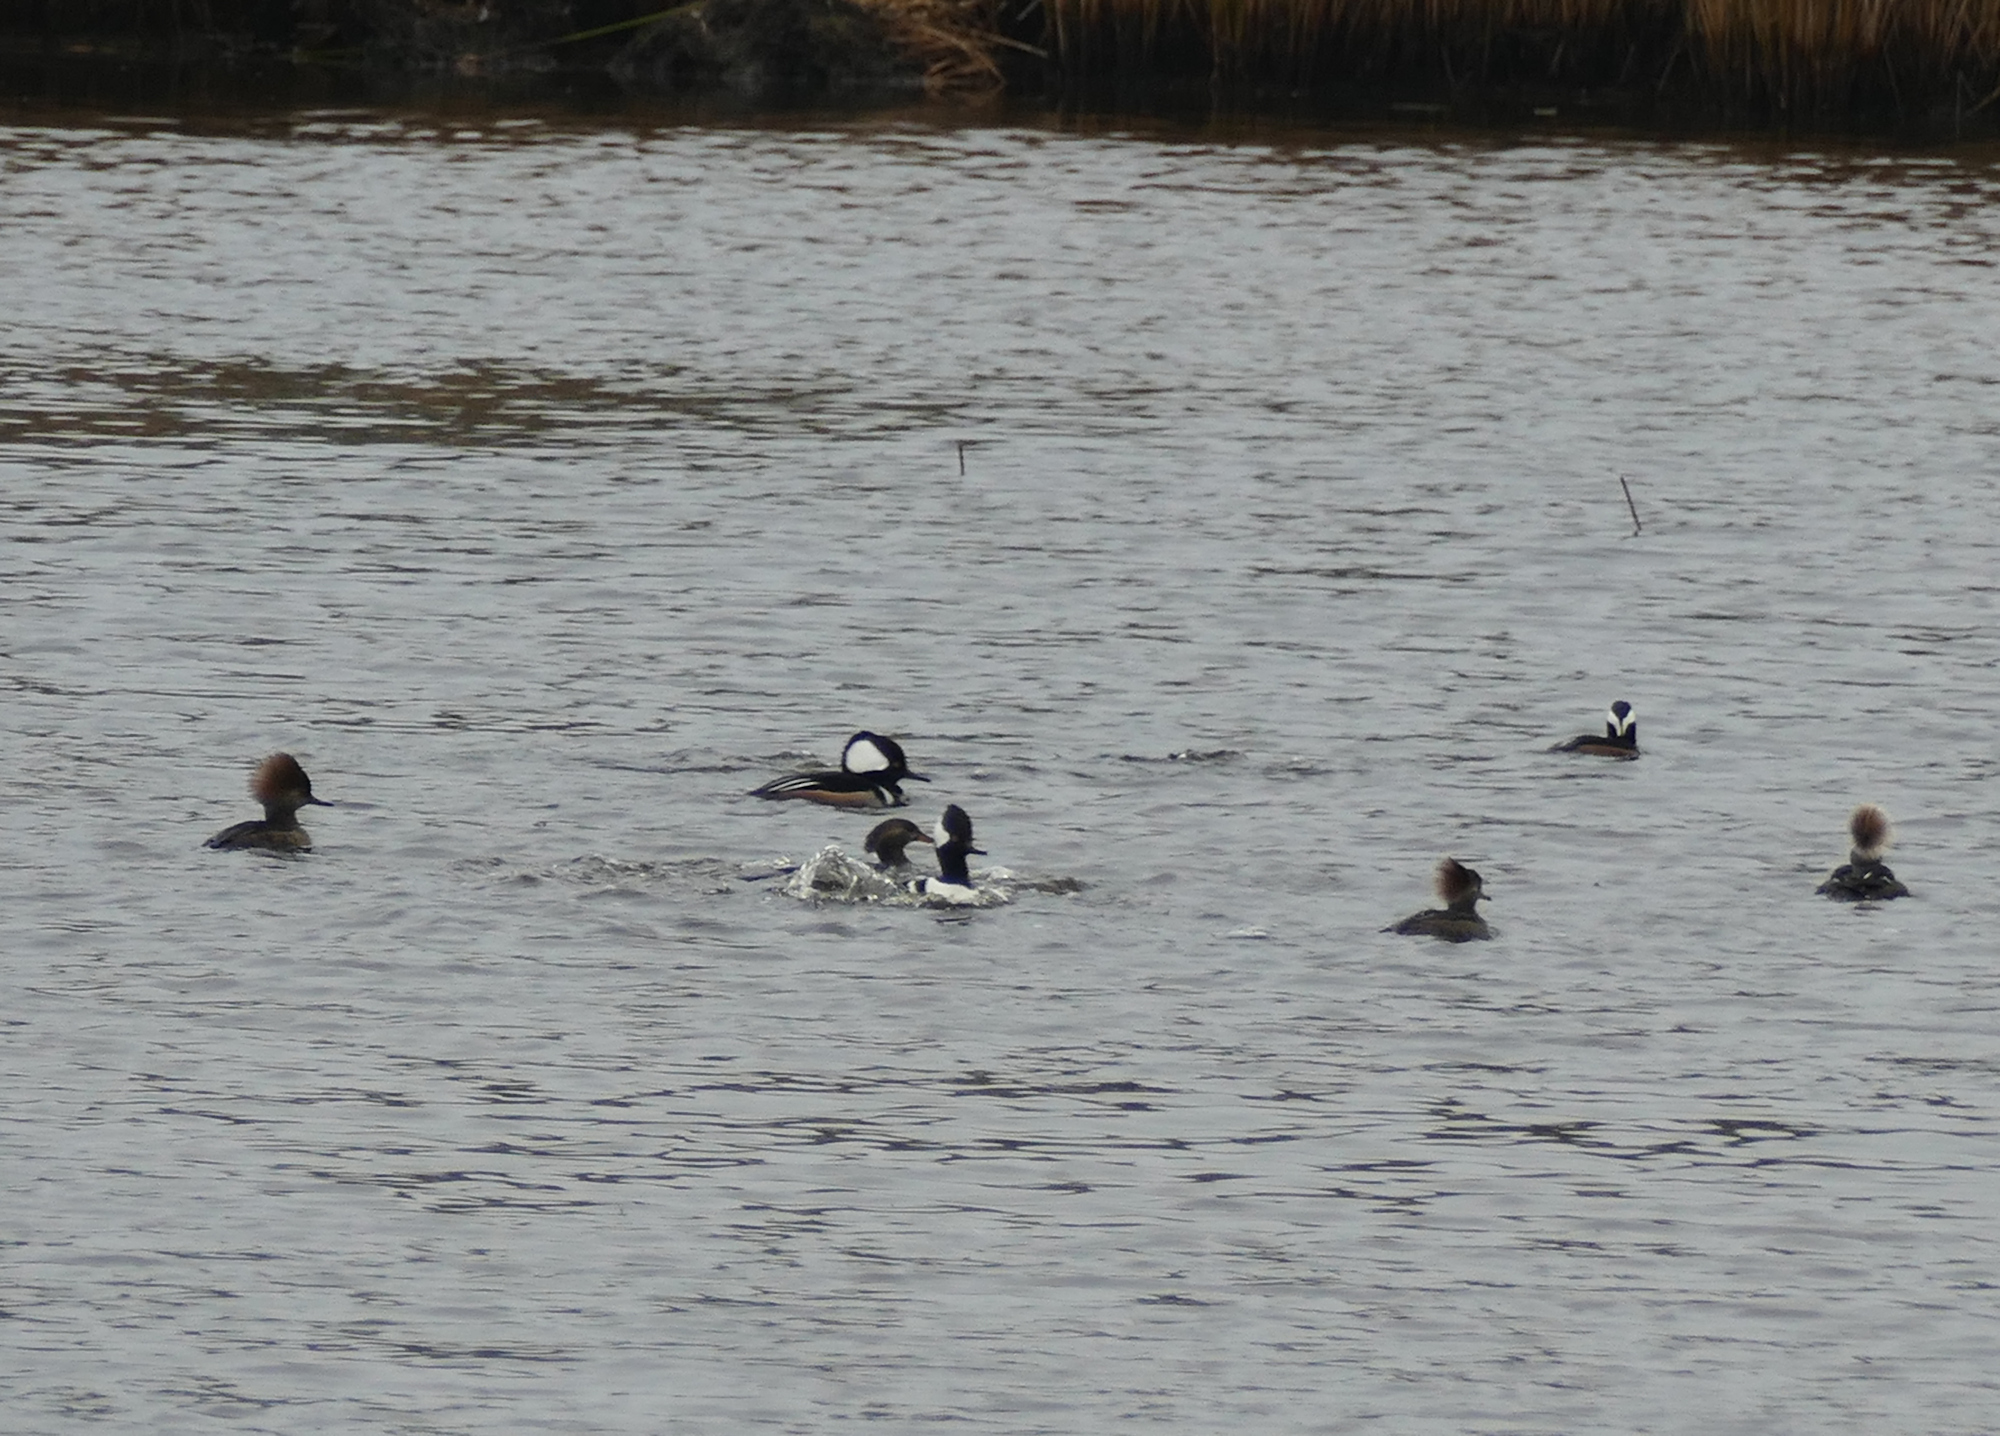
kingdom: Animalia
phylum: Chordata
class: Aves
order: Anseriformes
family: Anatidae
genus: Lophodytes
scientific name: Lophodytes cucullatus
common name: Hooded merganser
